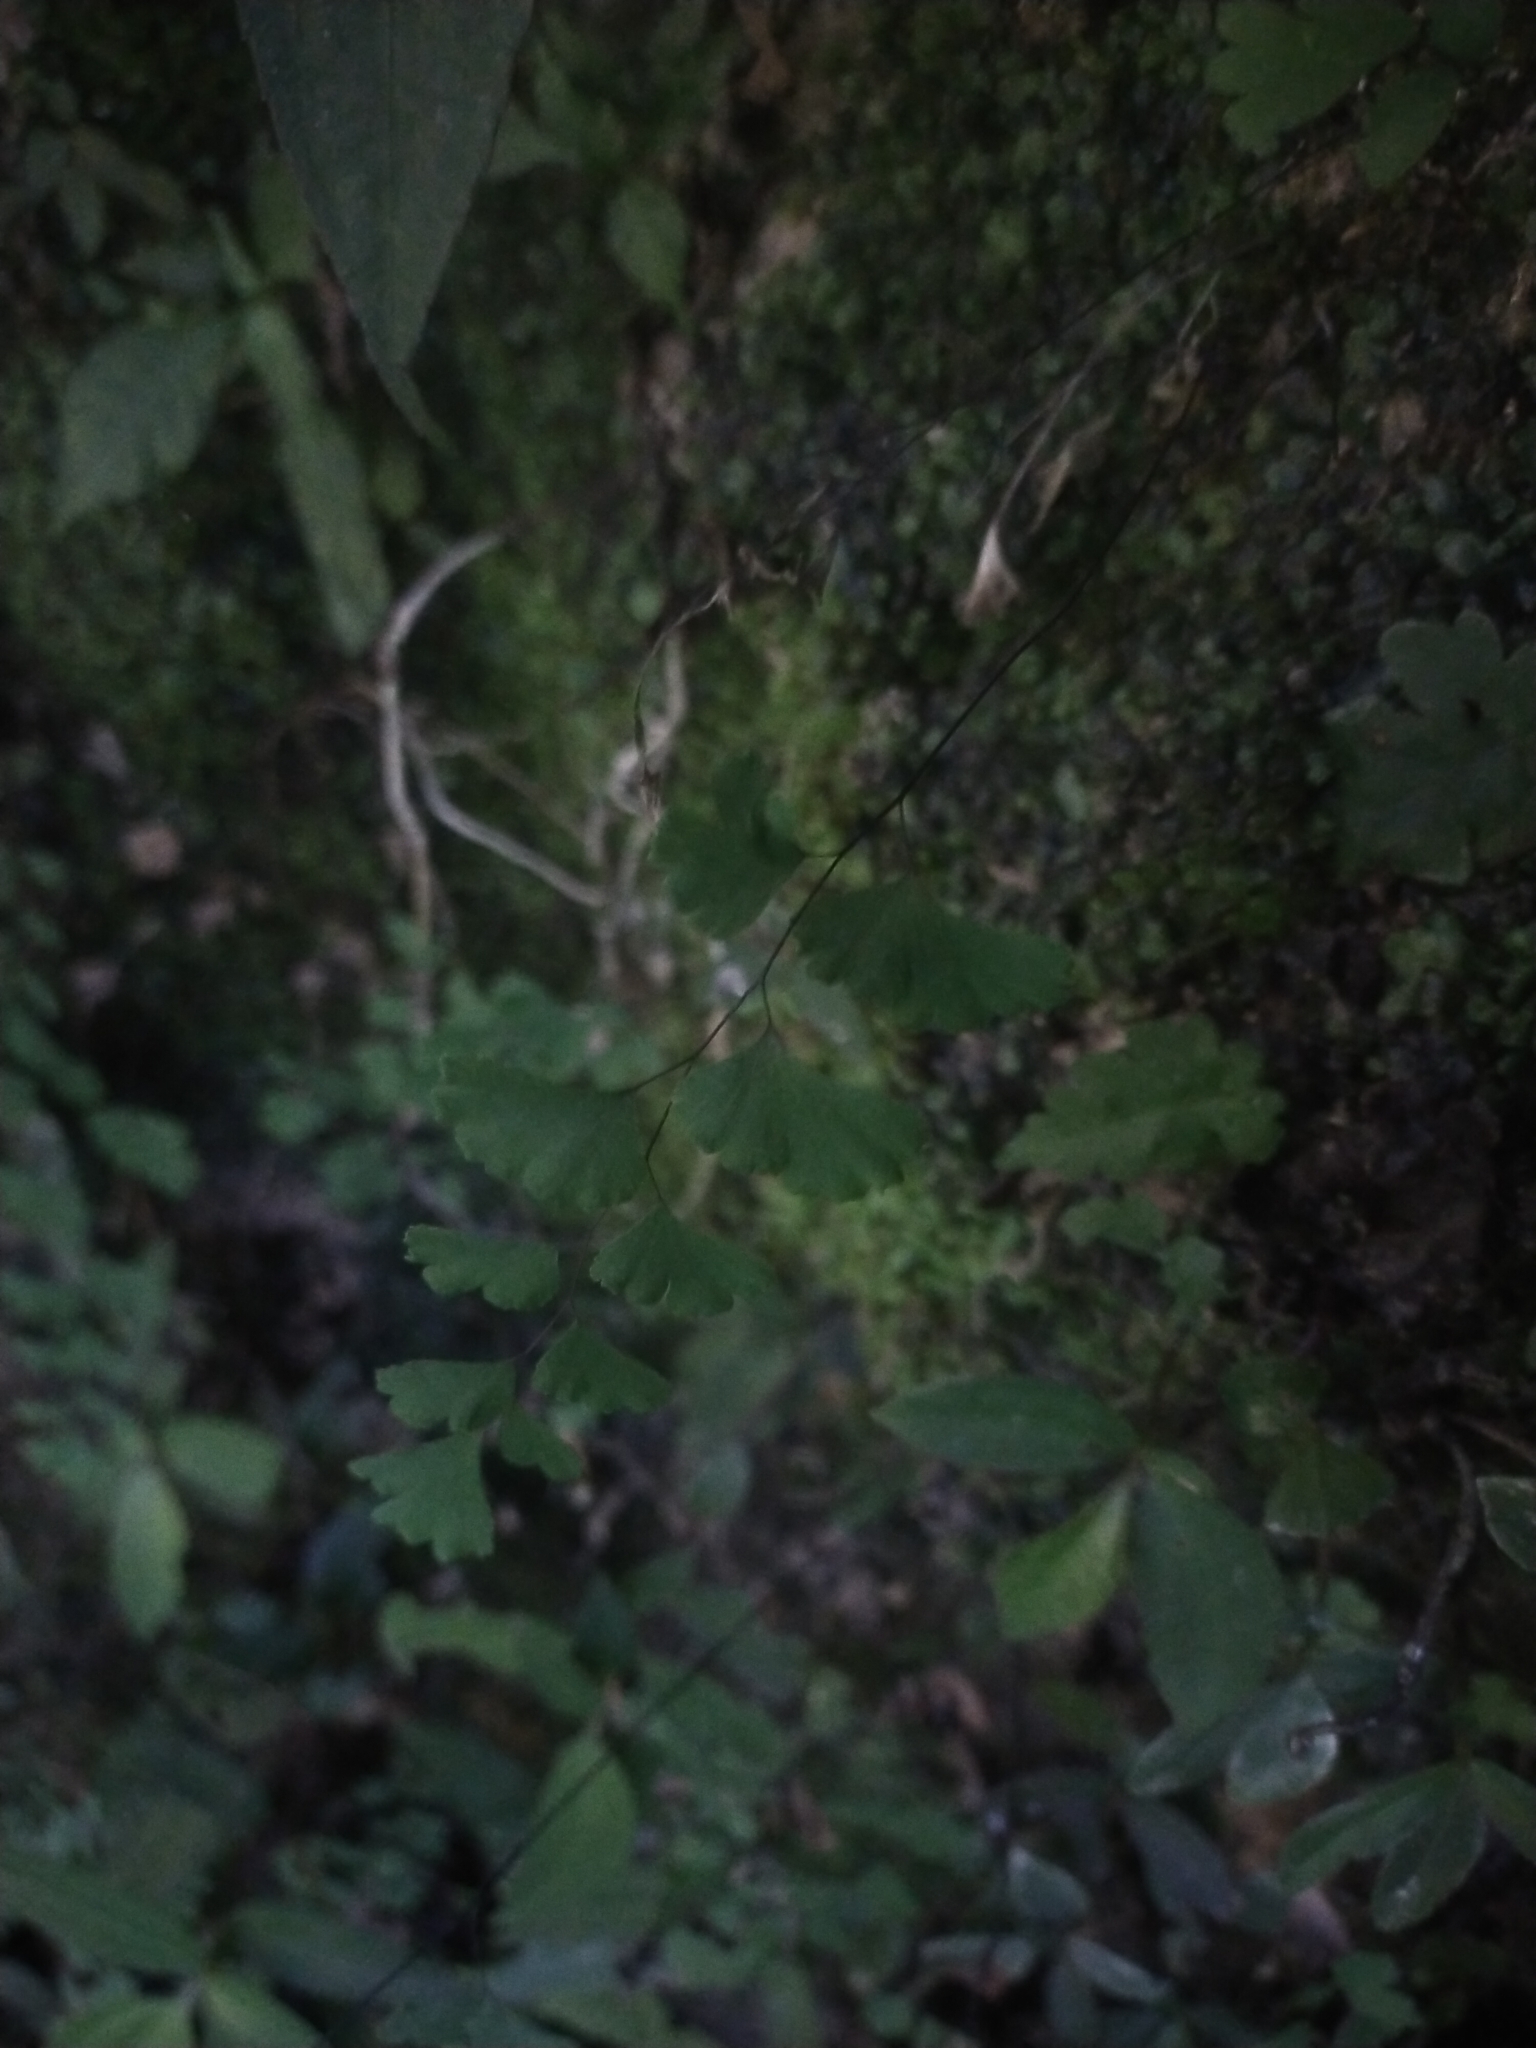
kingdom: Plantae
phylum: Tracheophyta
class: Polypodiopsida
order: Polypodiales
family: Pteridaceae
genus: Adiantum
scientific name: Adiantum philippense
